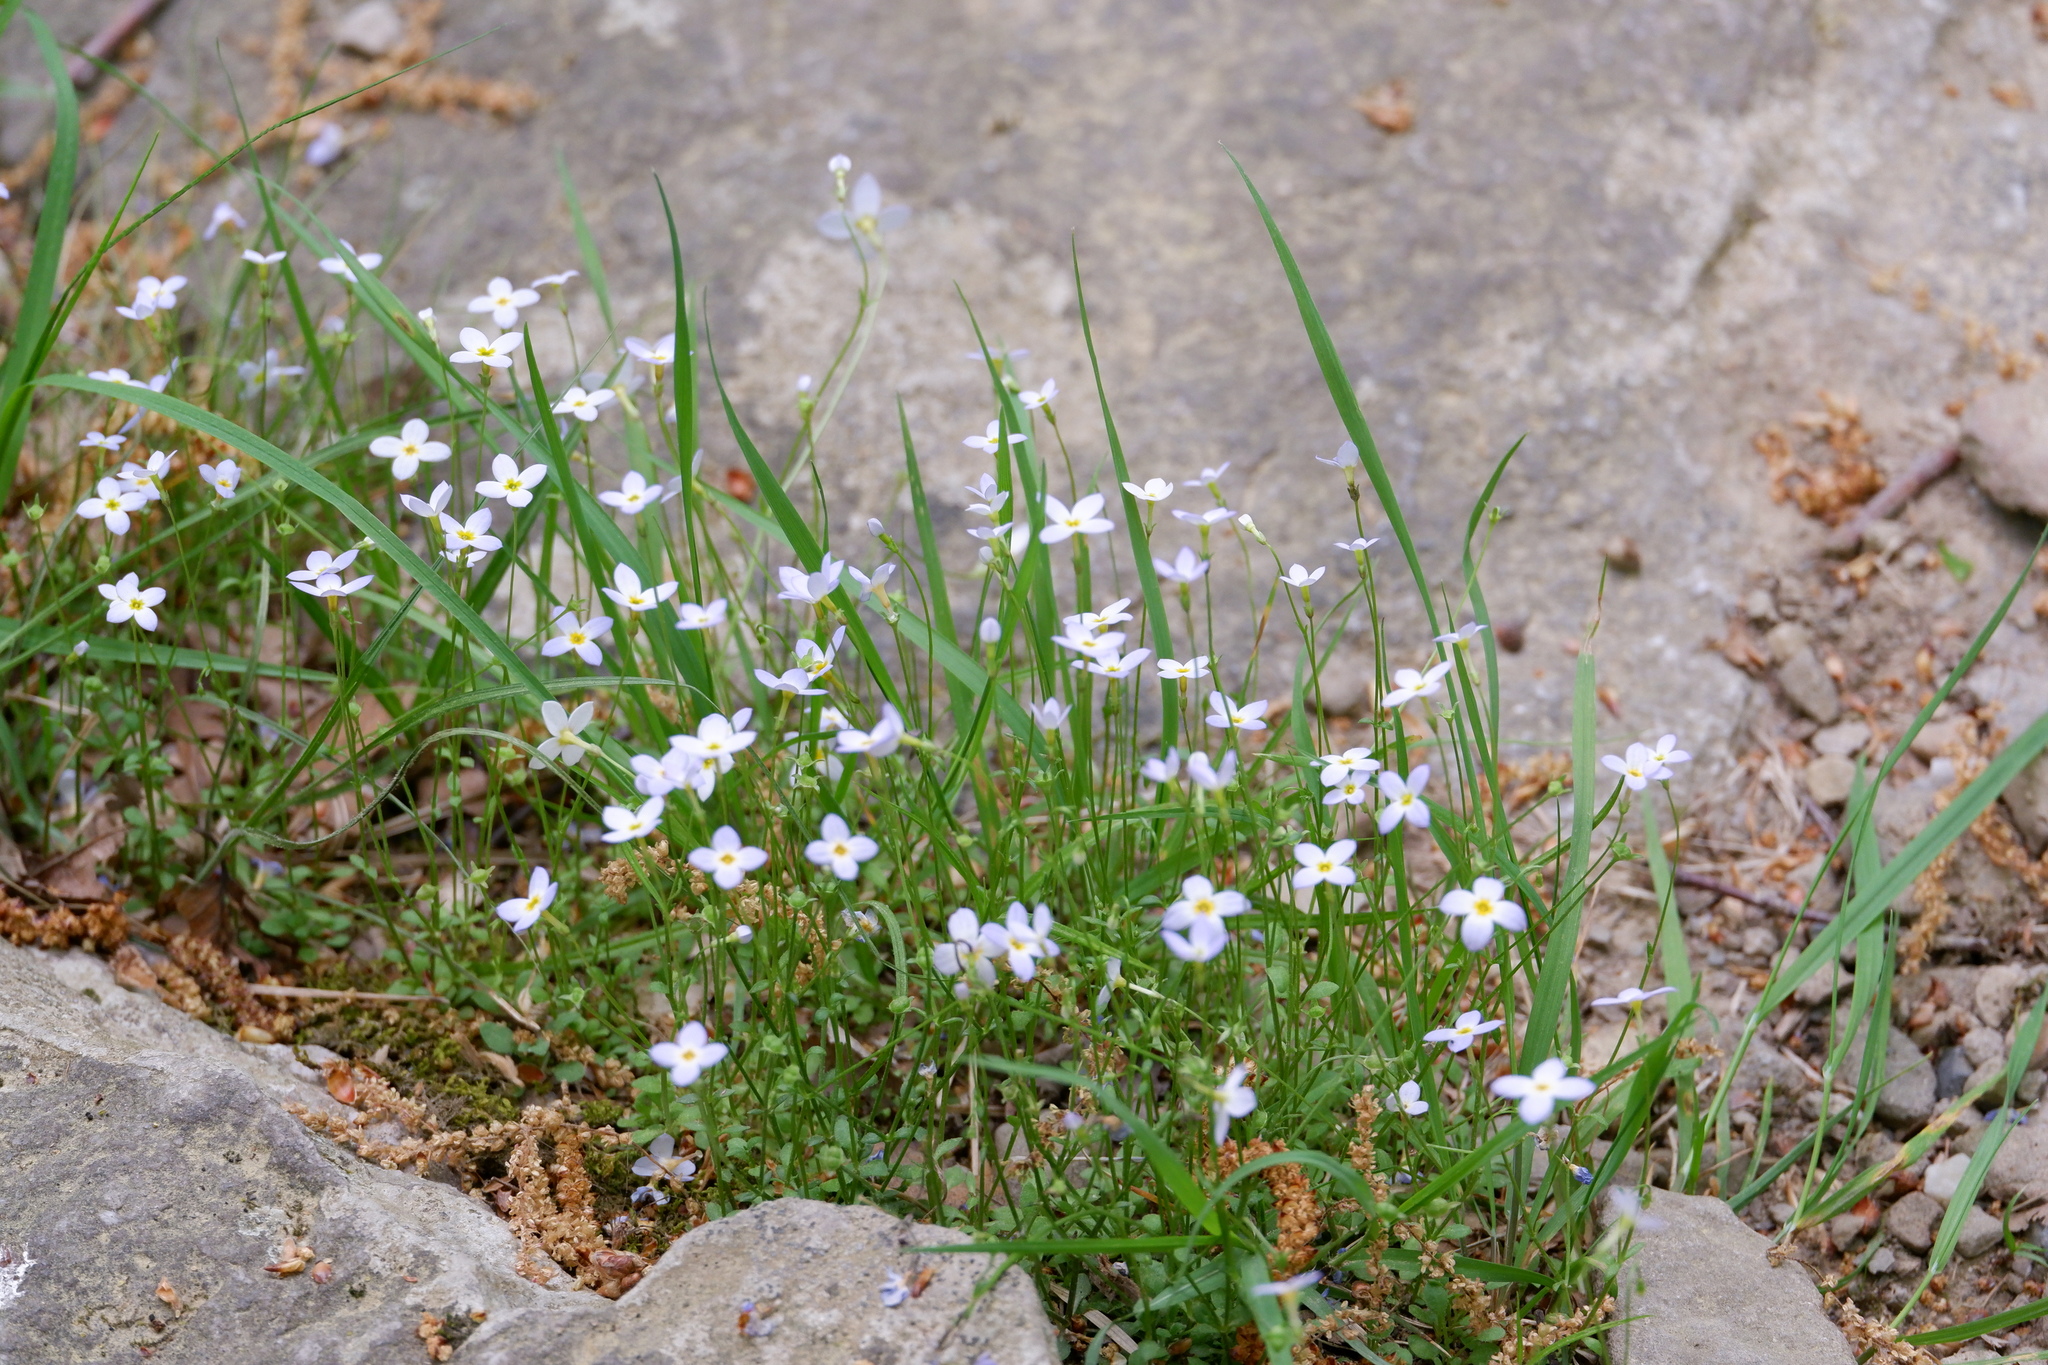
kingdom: Plantae
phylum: Tracheophyta
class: Magnoliopsida
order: Gentianales
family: Rubiaceae
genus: Houstonia
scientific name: Houstonia caerulea
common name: Bluets
